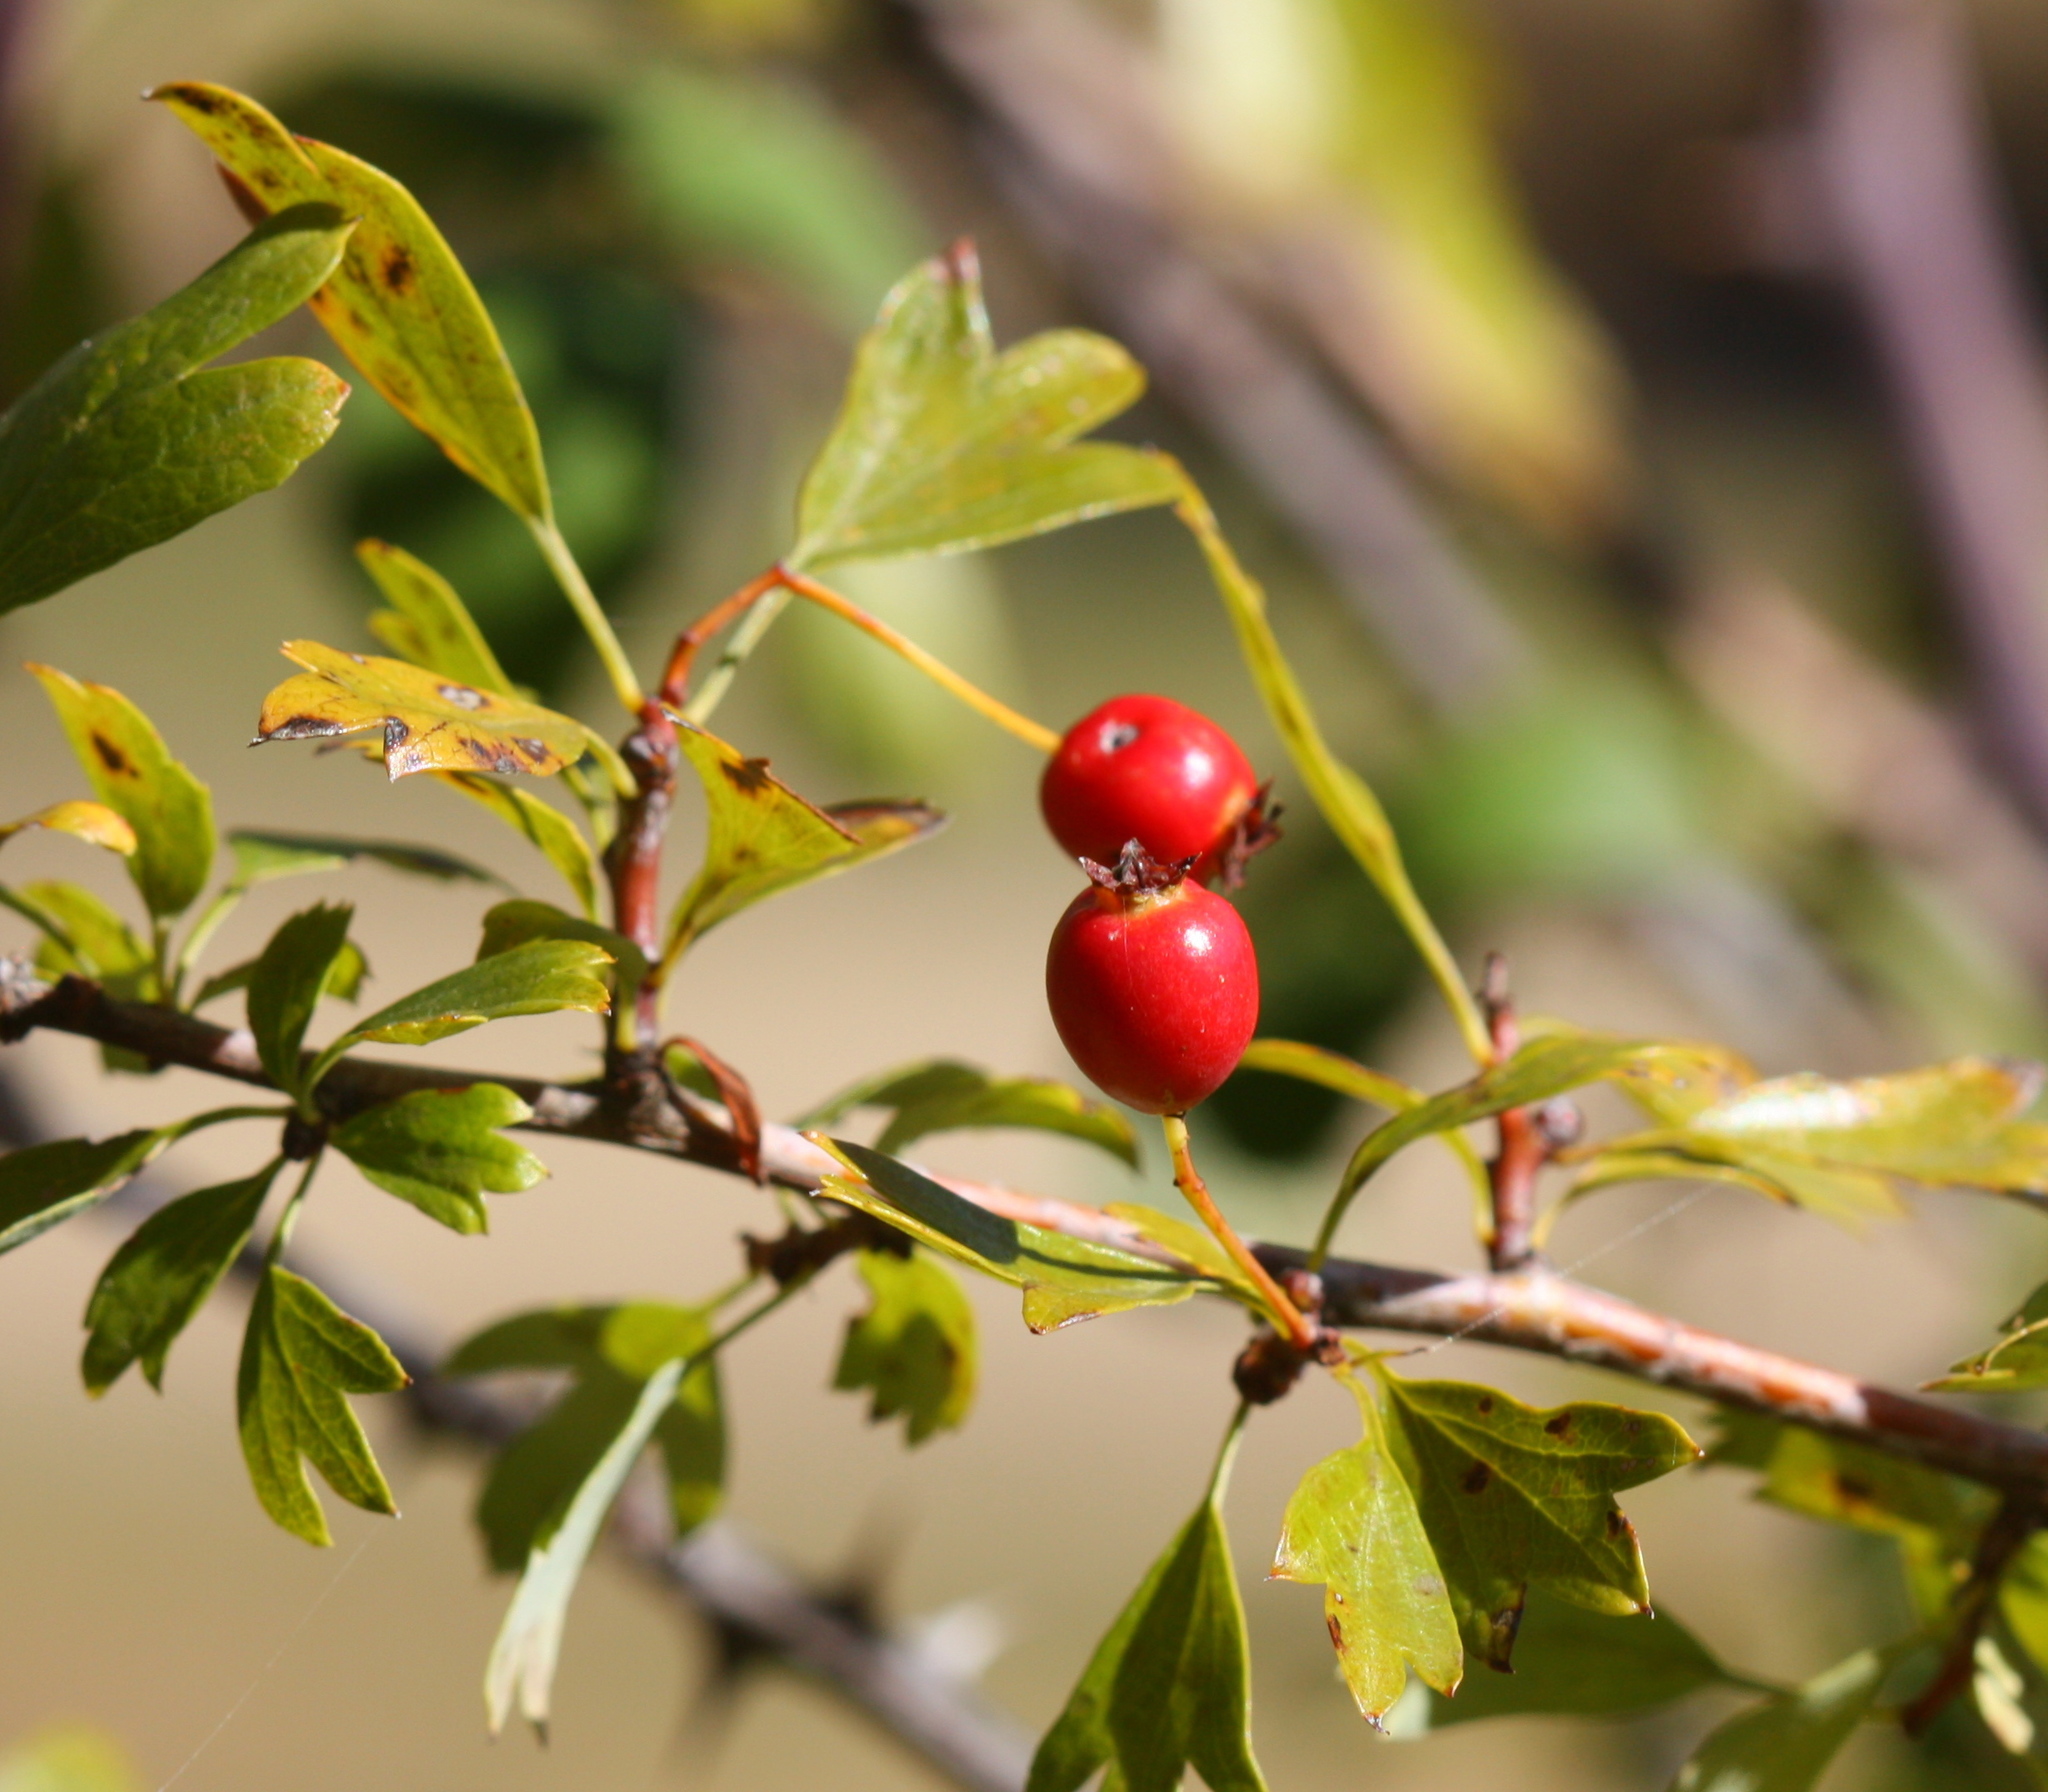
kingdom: Plantae
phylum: Tracheophyta
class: Magnoliopsida
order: Rosales
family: Rosaceae
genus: Crataegus
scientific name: Crataegus monogyna
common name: Hawthorn
